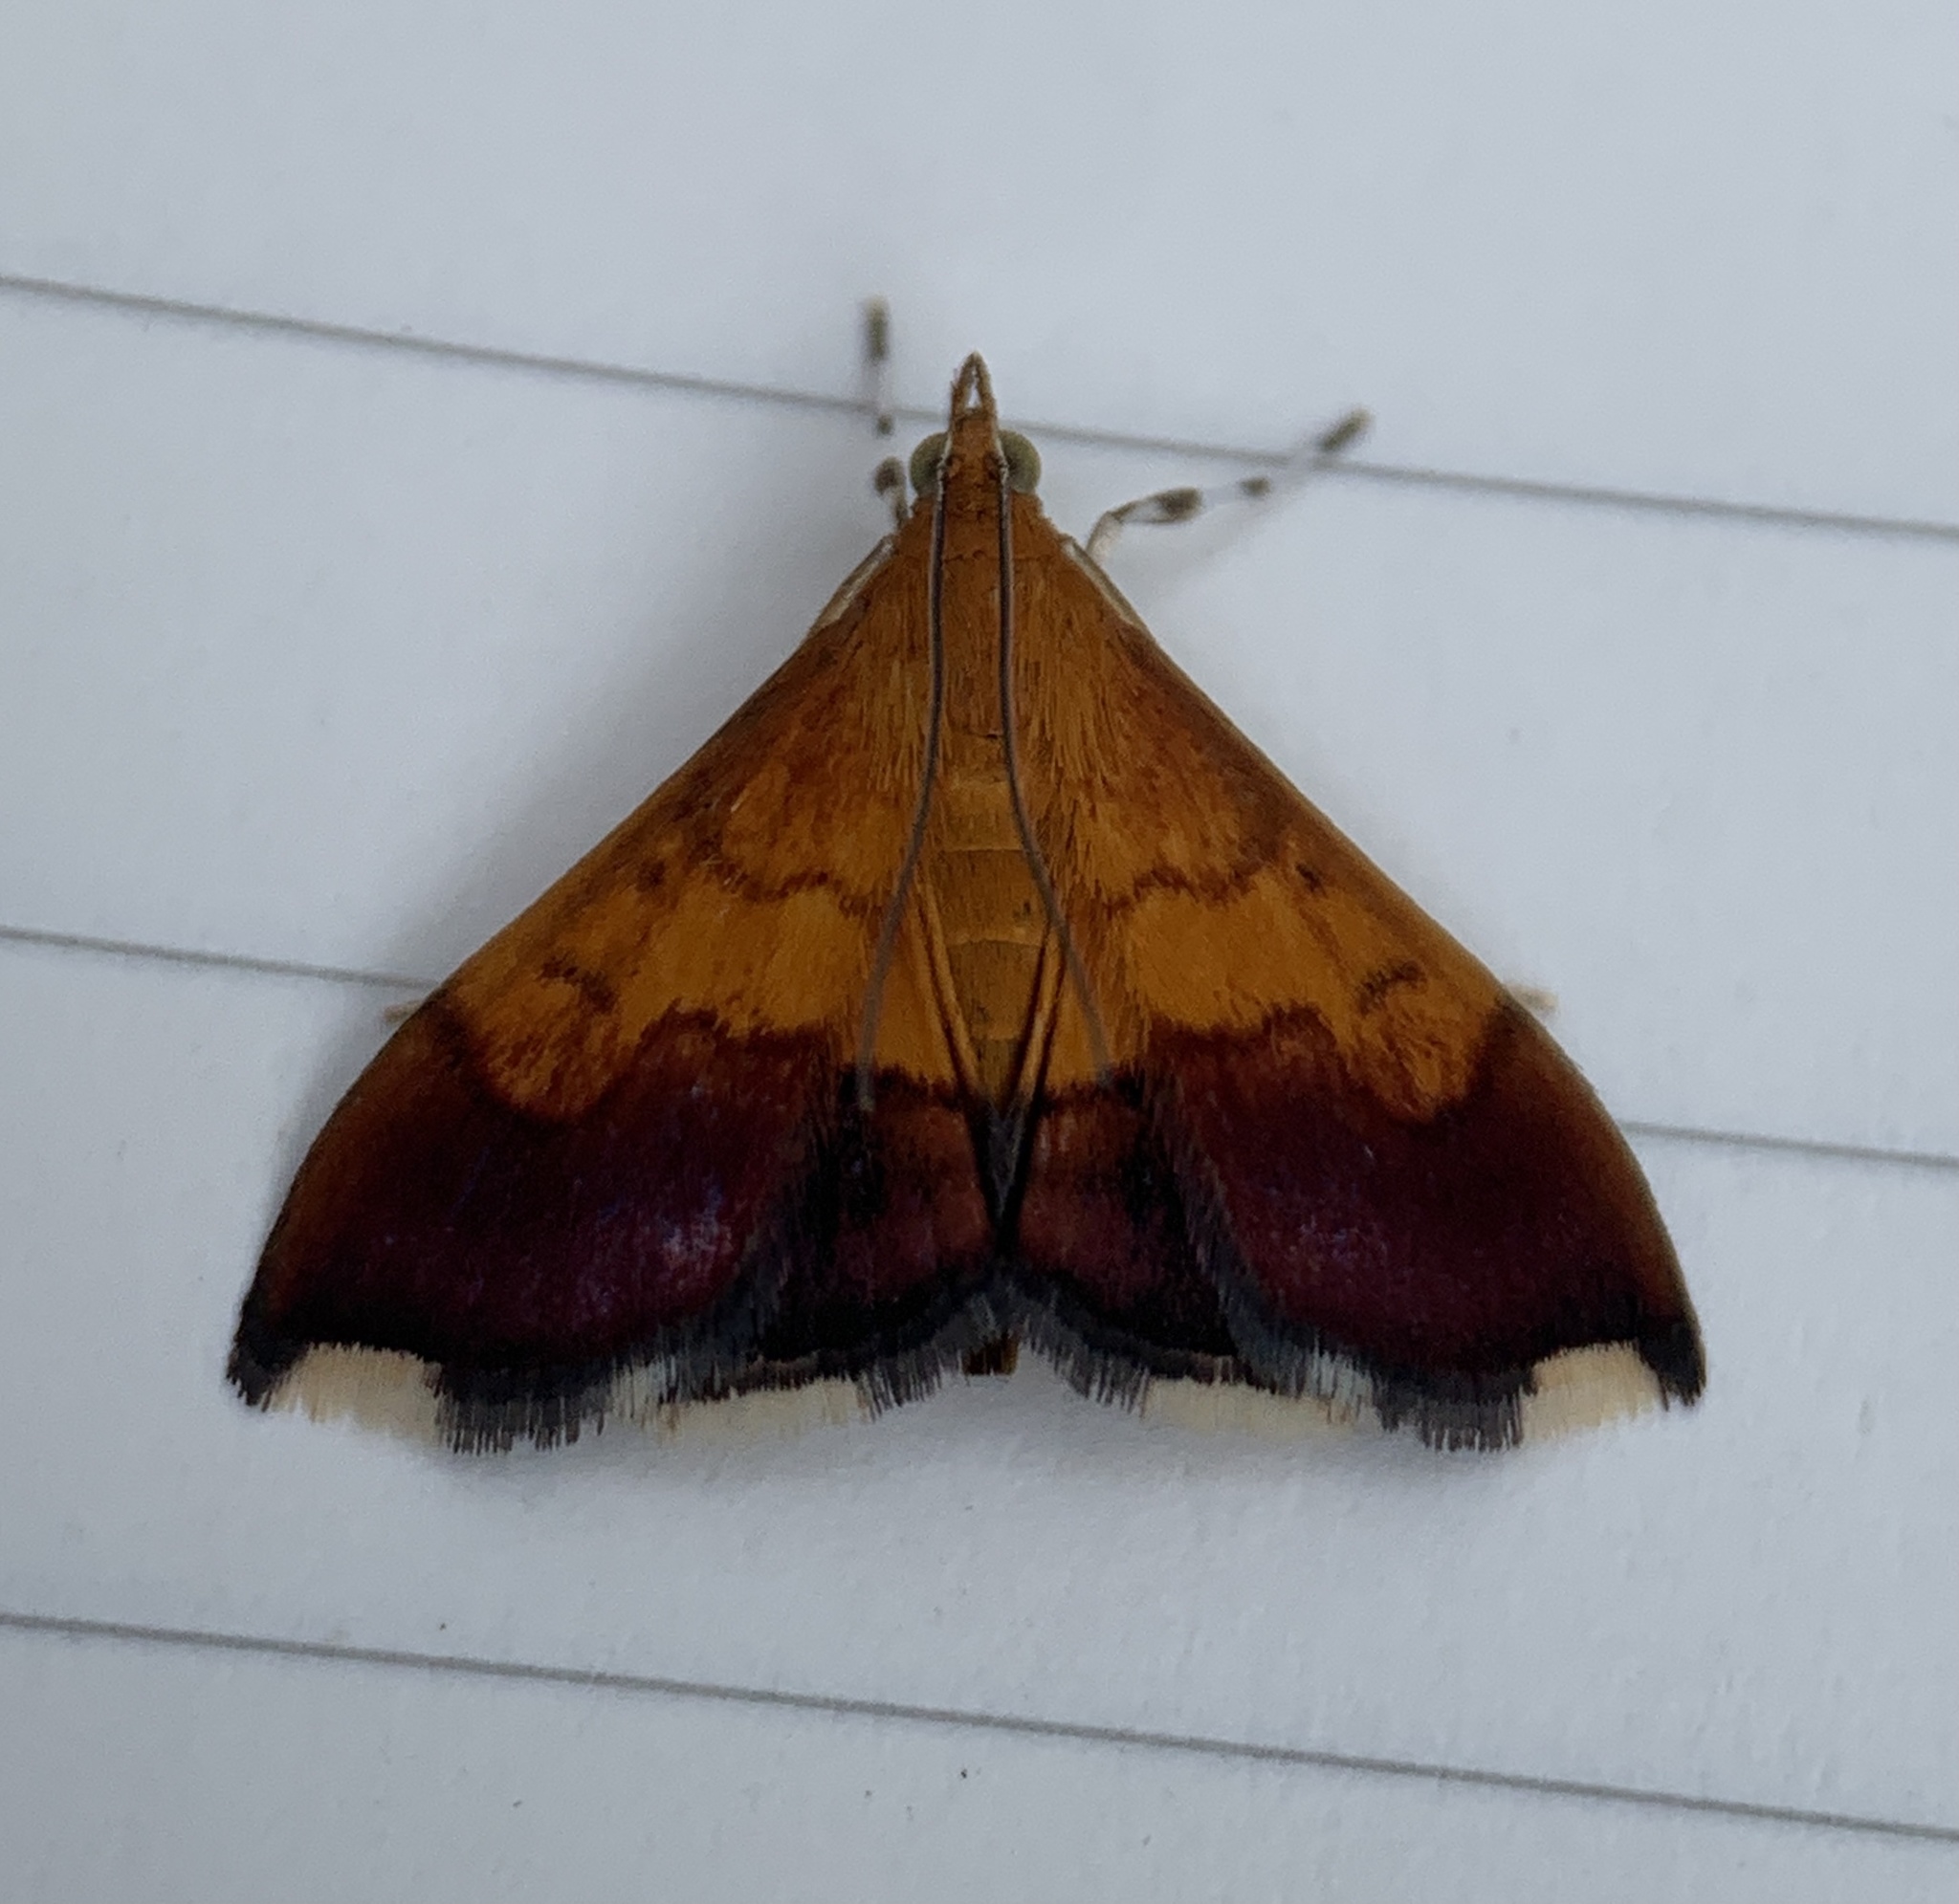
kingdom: Animalia
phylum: Arthropoda
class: Insecta
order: Lepidoptera
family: Crambidae
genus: Pyrausta
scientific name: Pyrausta bicoloralis
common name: Bicolored pyrausta moth
